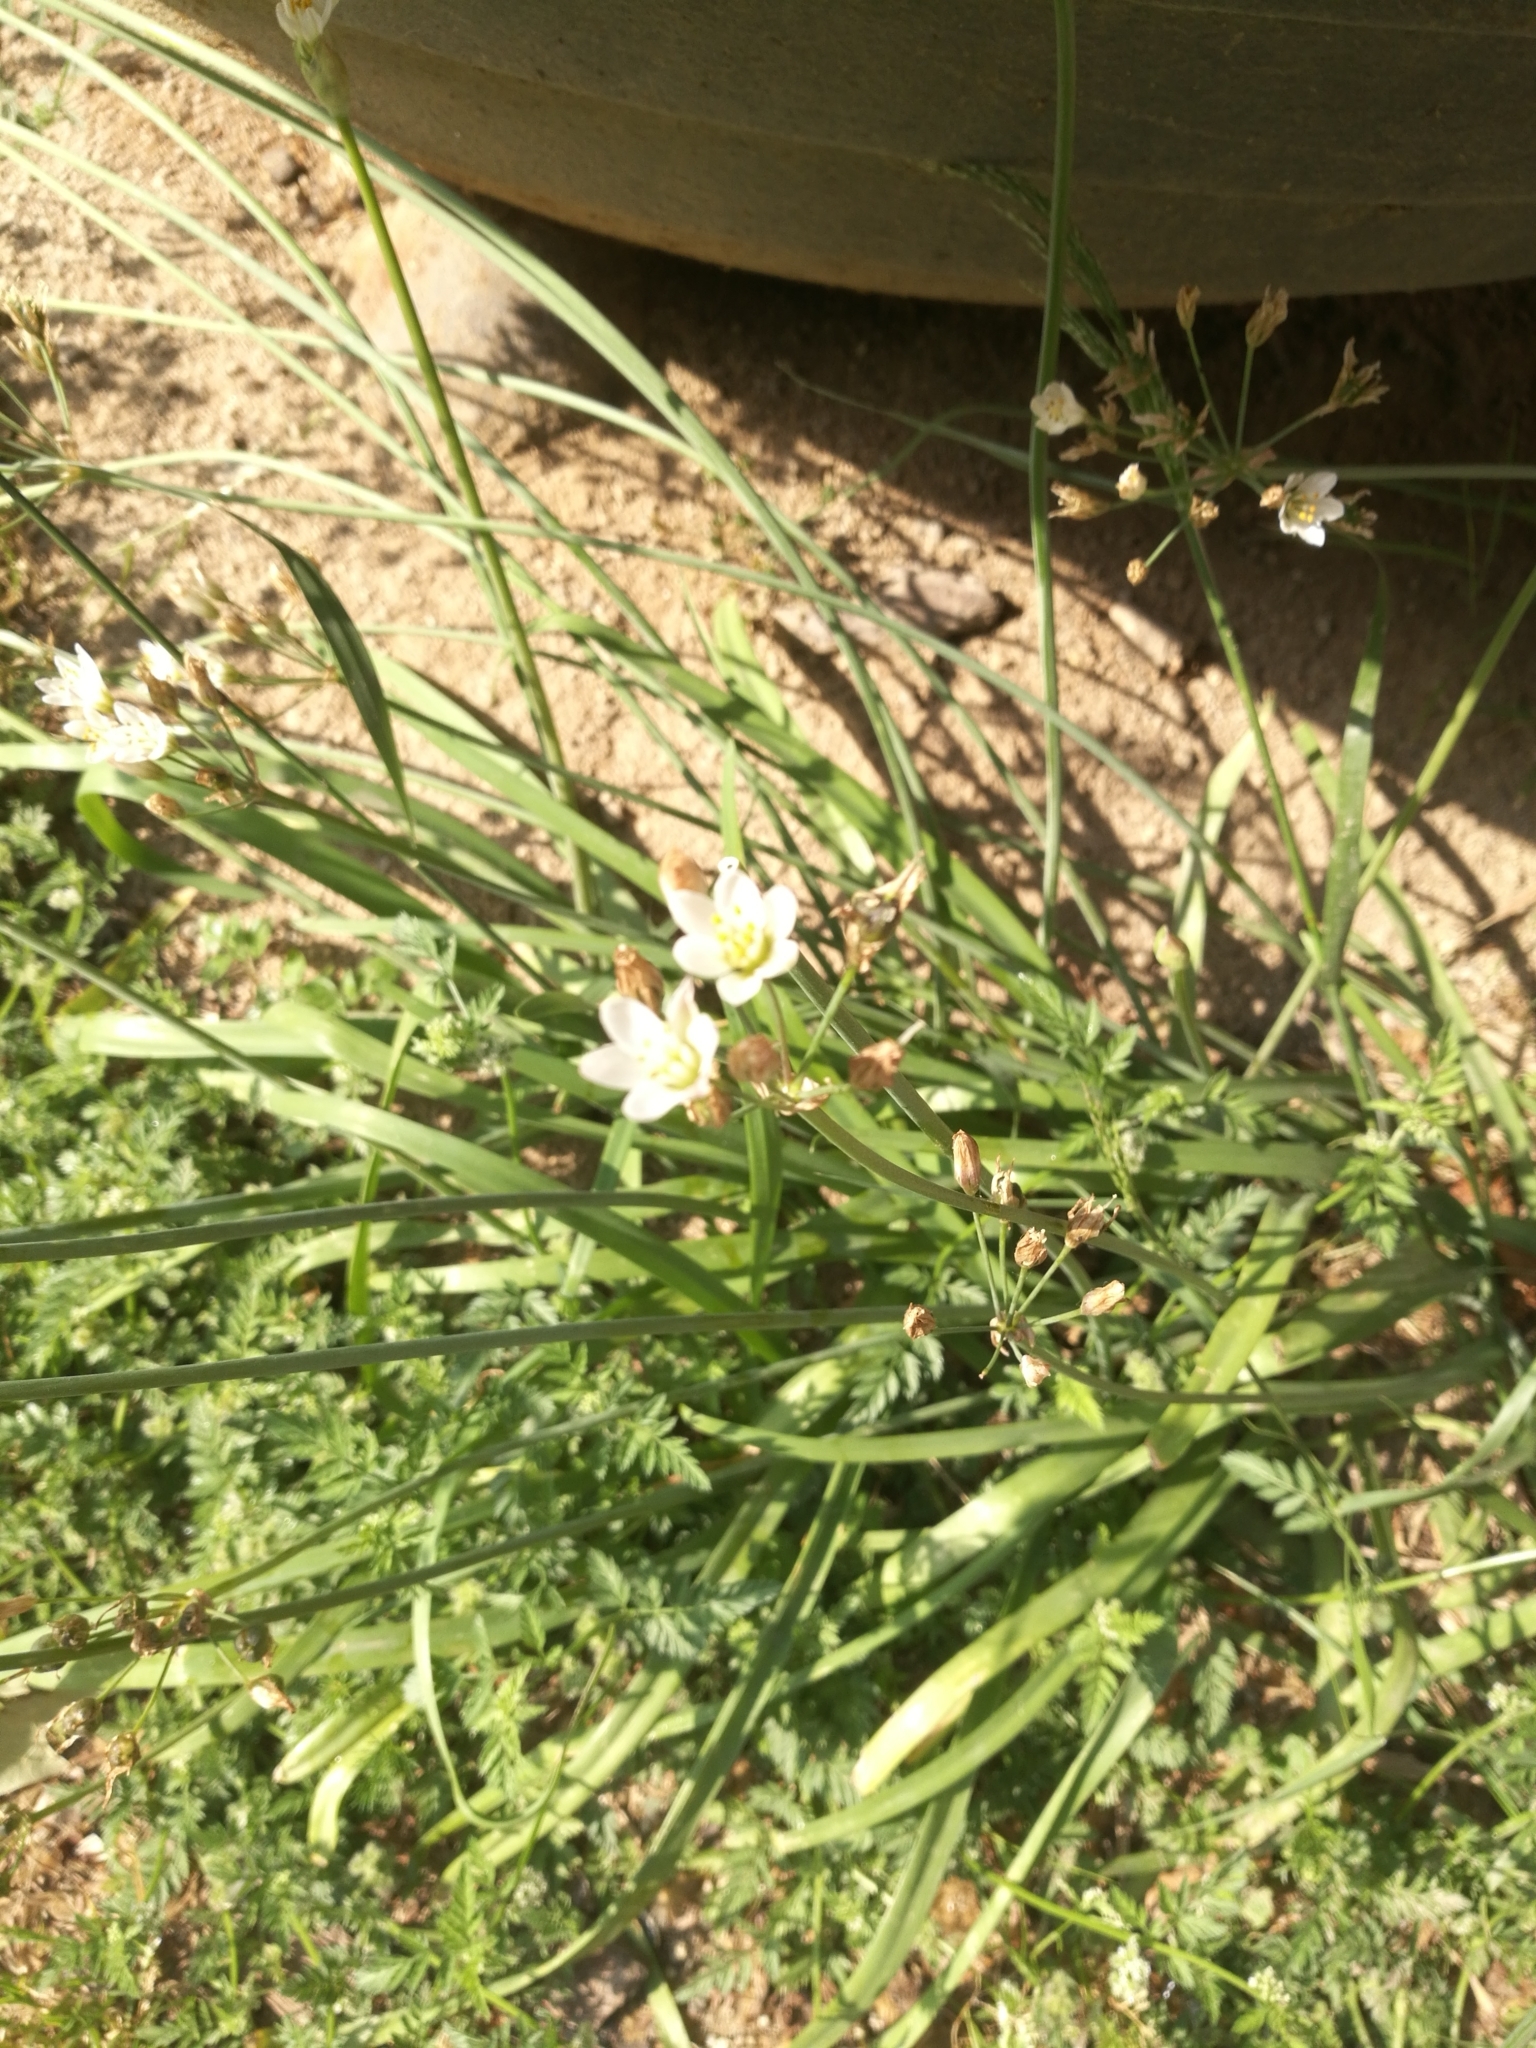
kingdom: Plantae
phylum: Tracheophyta
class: Liliopsida
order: Alismatales
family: Butomaceae
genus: Butomus
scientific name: Butomus umbellatus
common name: Flowering-rush
